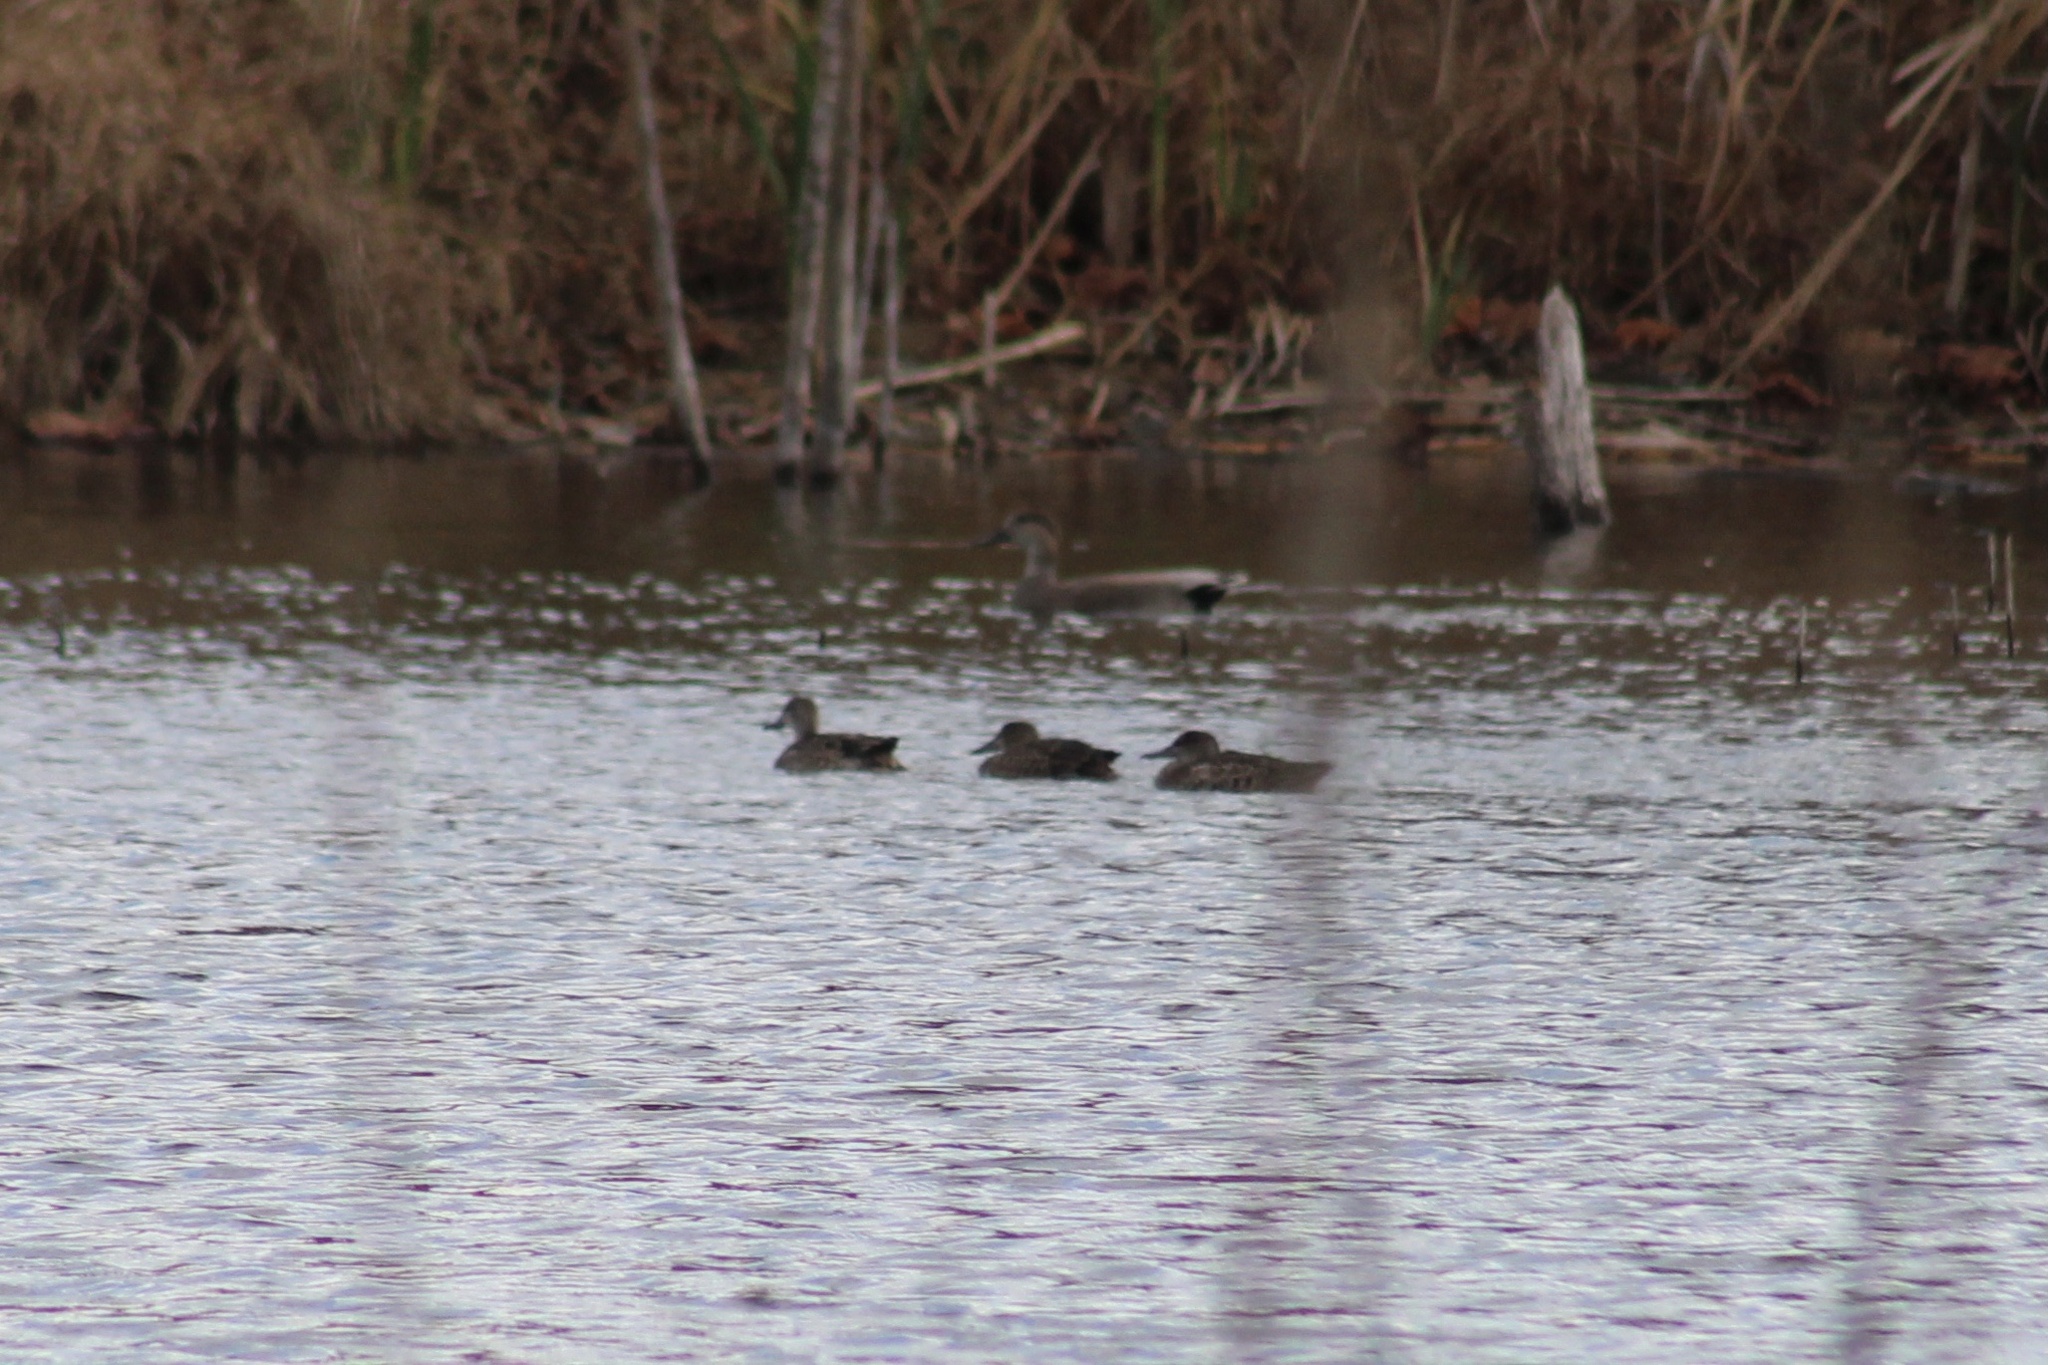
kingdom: Animalia
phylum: Chordata
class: Aves
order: Anseriformes
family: Anatidae
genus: Spatula
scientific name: Spatula discors
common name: Blue-winged teal
